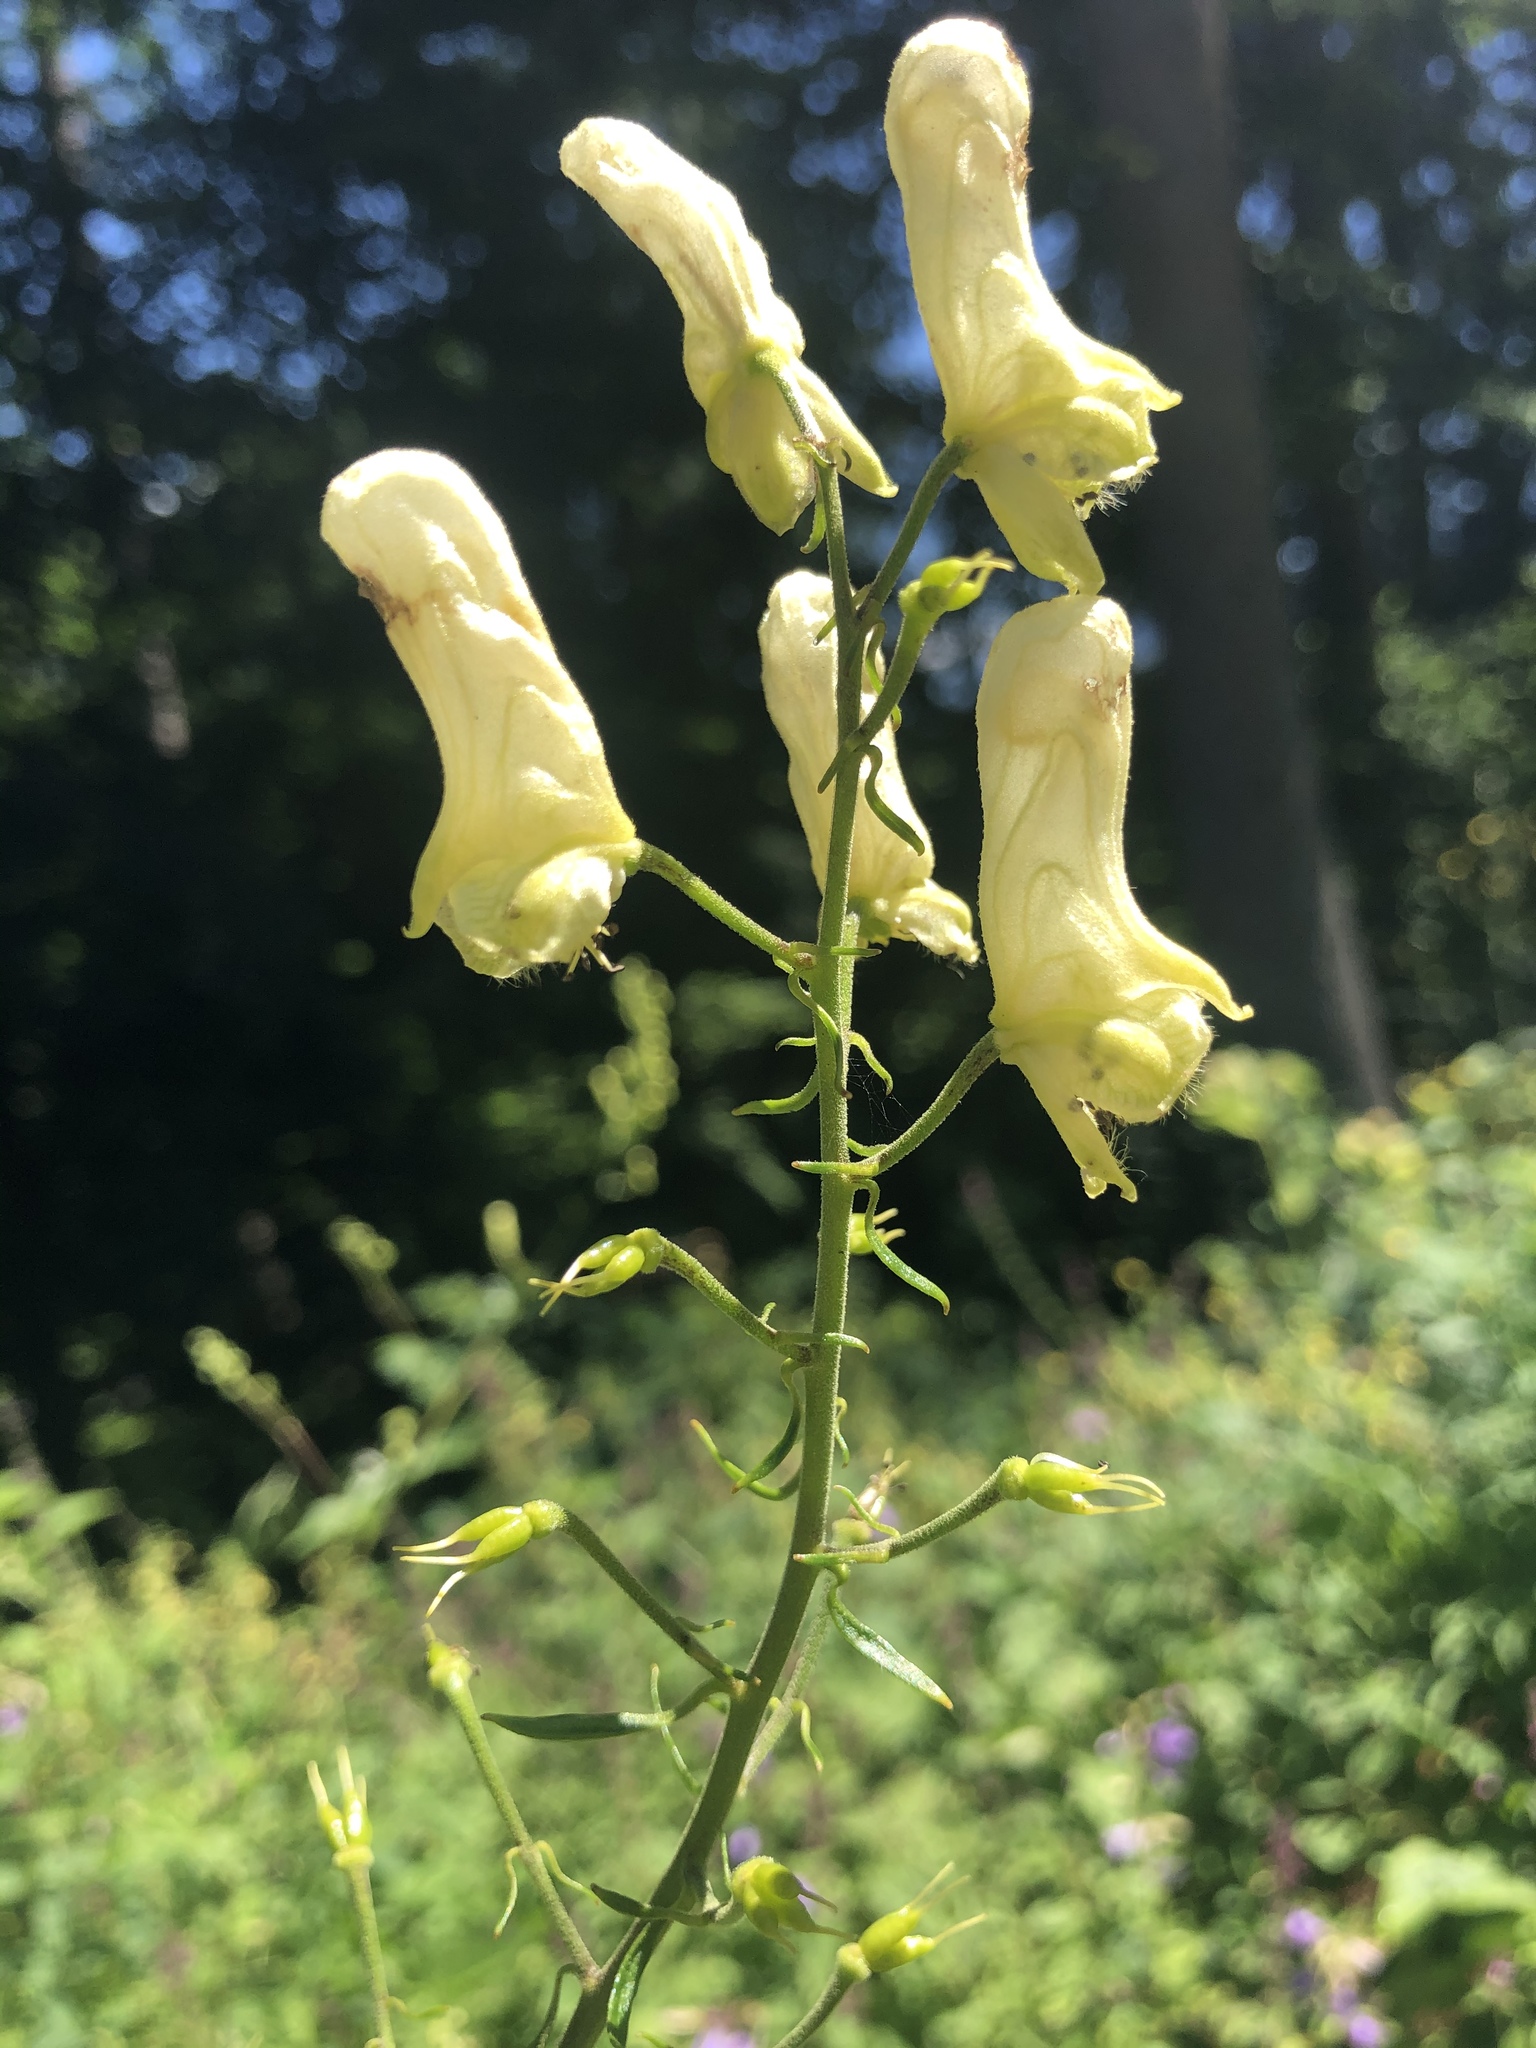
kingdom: Plantae
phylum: Tracheophyta
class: Magnoliopsida
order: Ranunculales
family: Ranunculaceae
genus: Aconitum
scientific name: Aconitum lycoctonum
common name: Wolf's-bane
